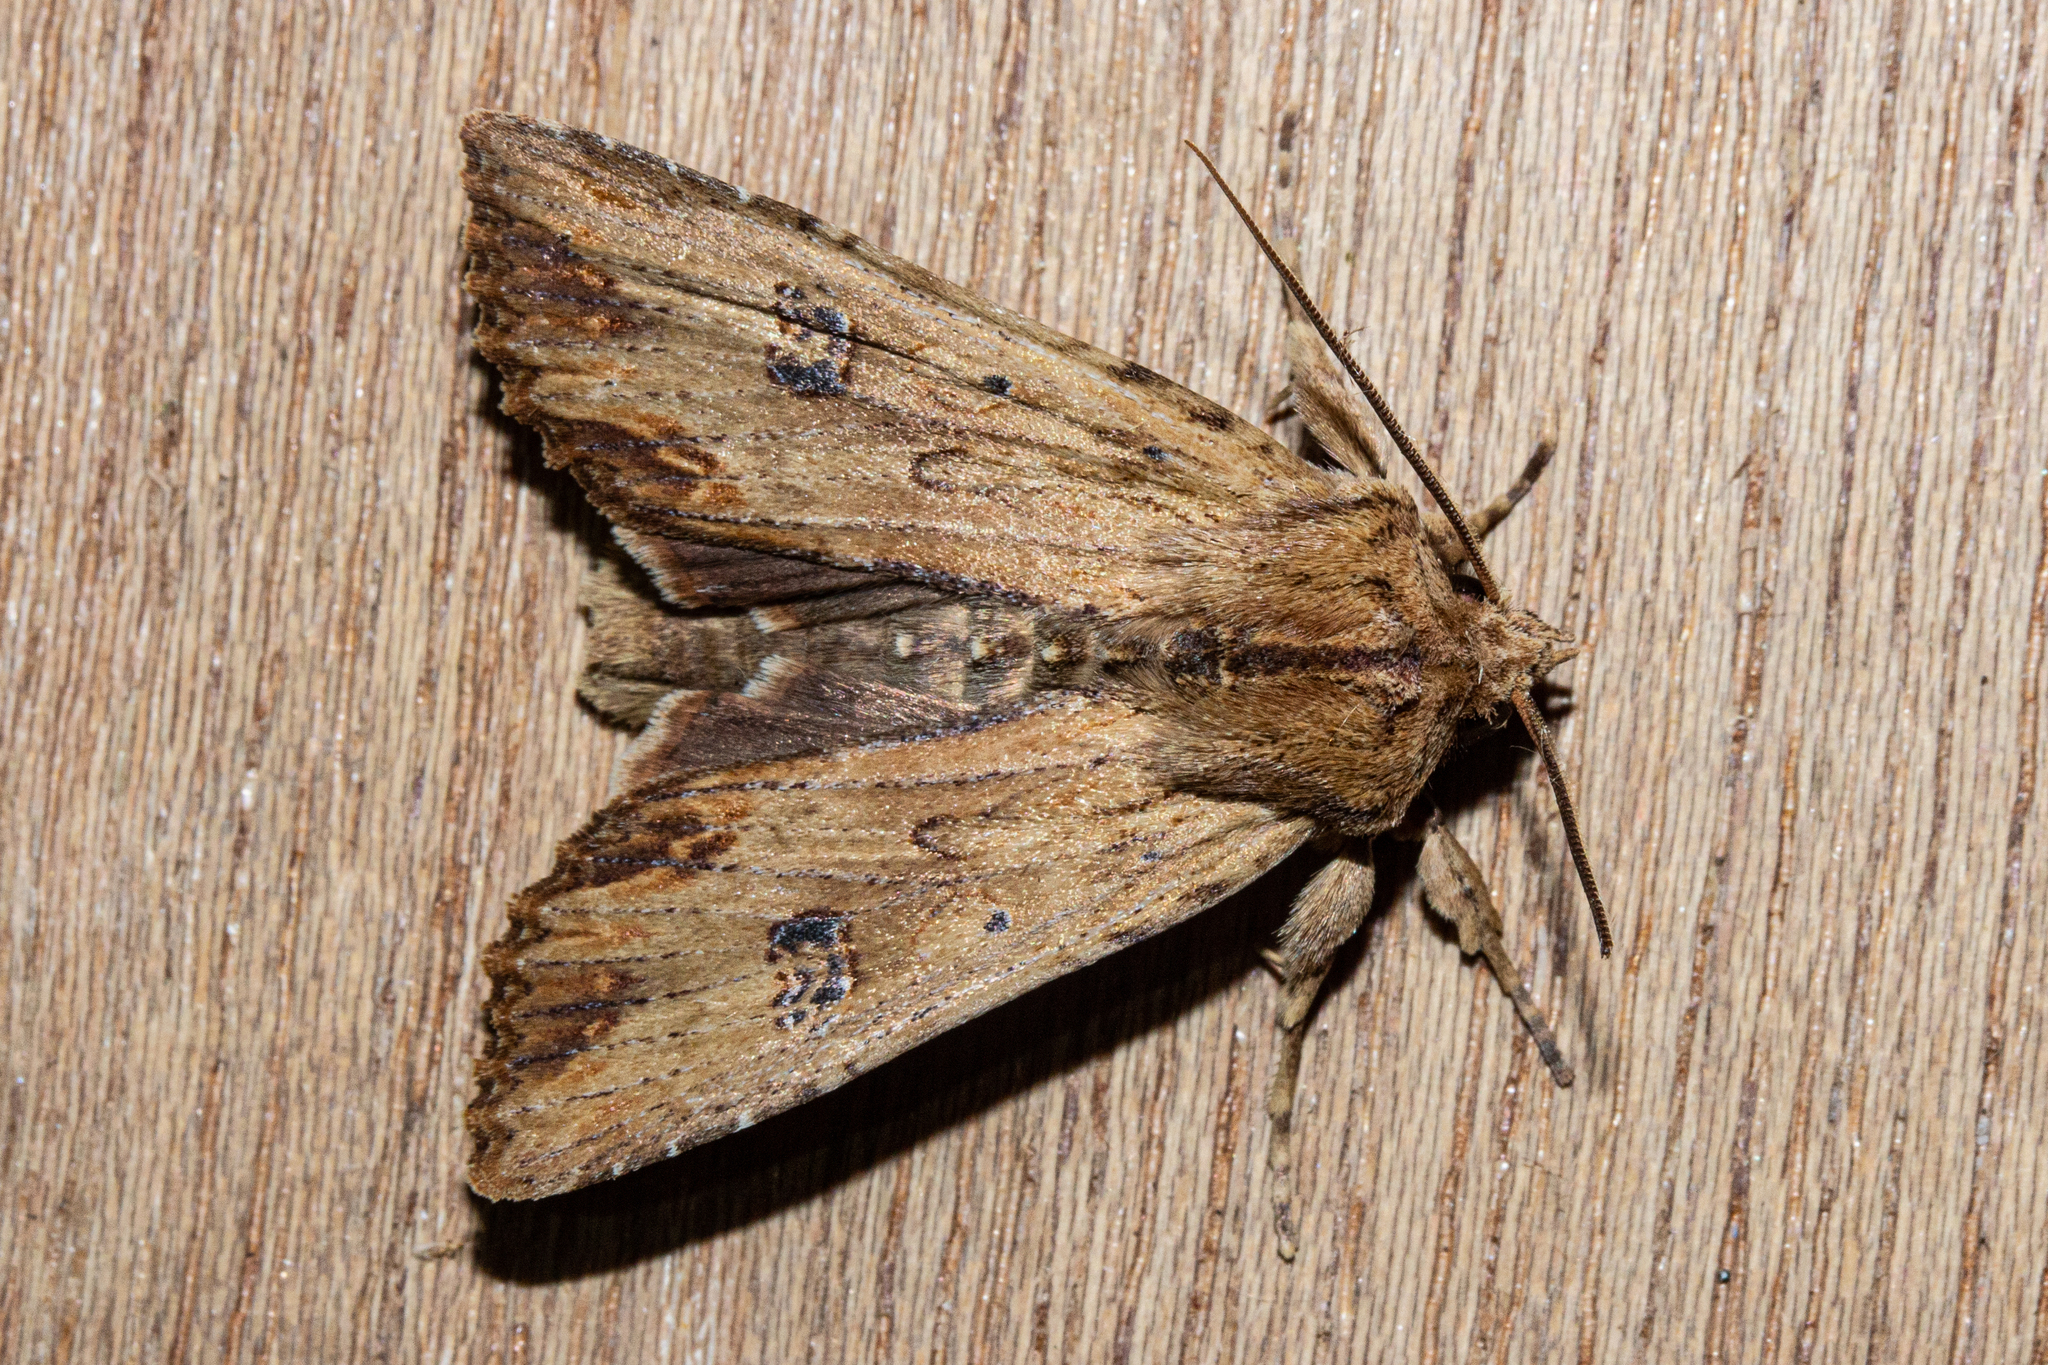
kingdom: Animalia
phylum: Arthropoda
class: Insecta
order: Lepidoptera
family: Noctuidae
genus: Ichneutica
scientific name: Ichneutica
